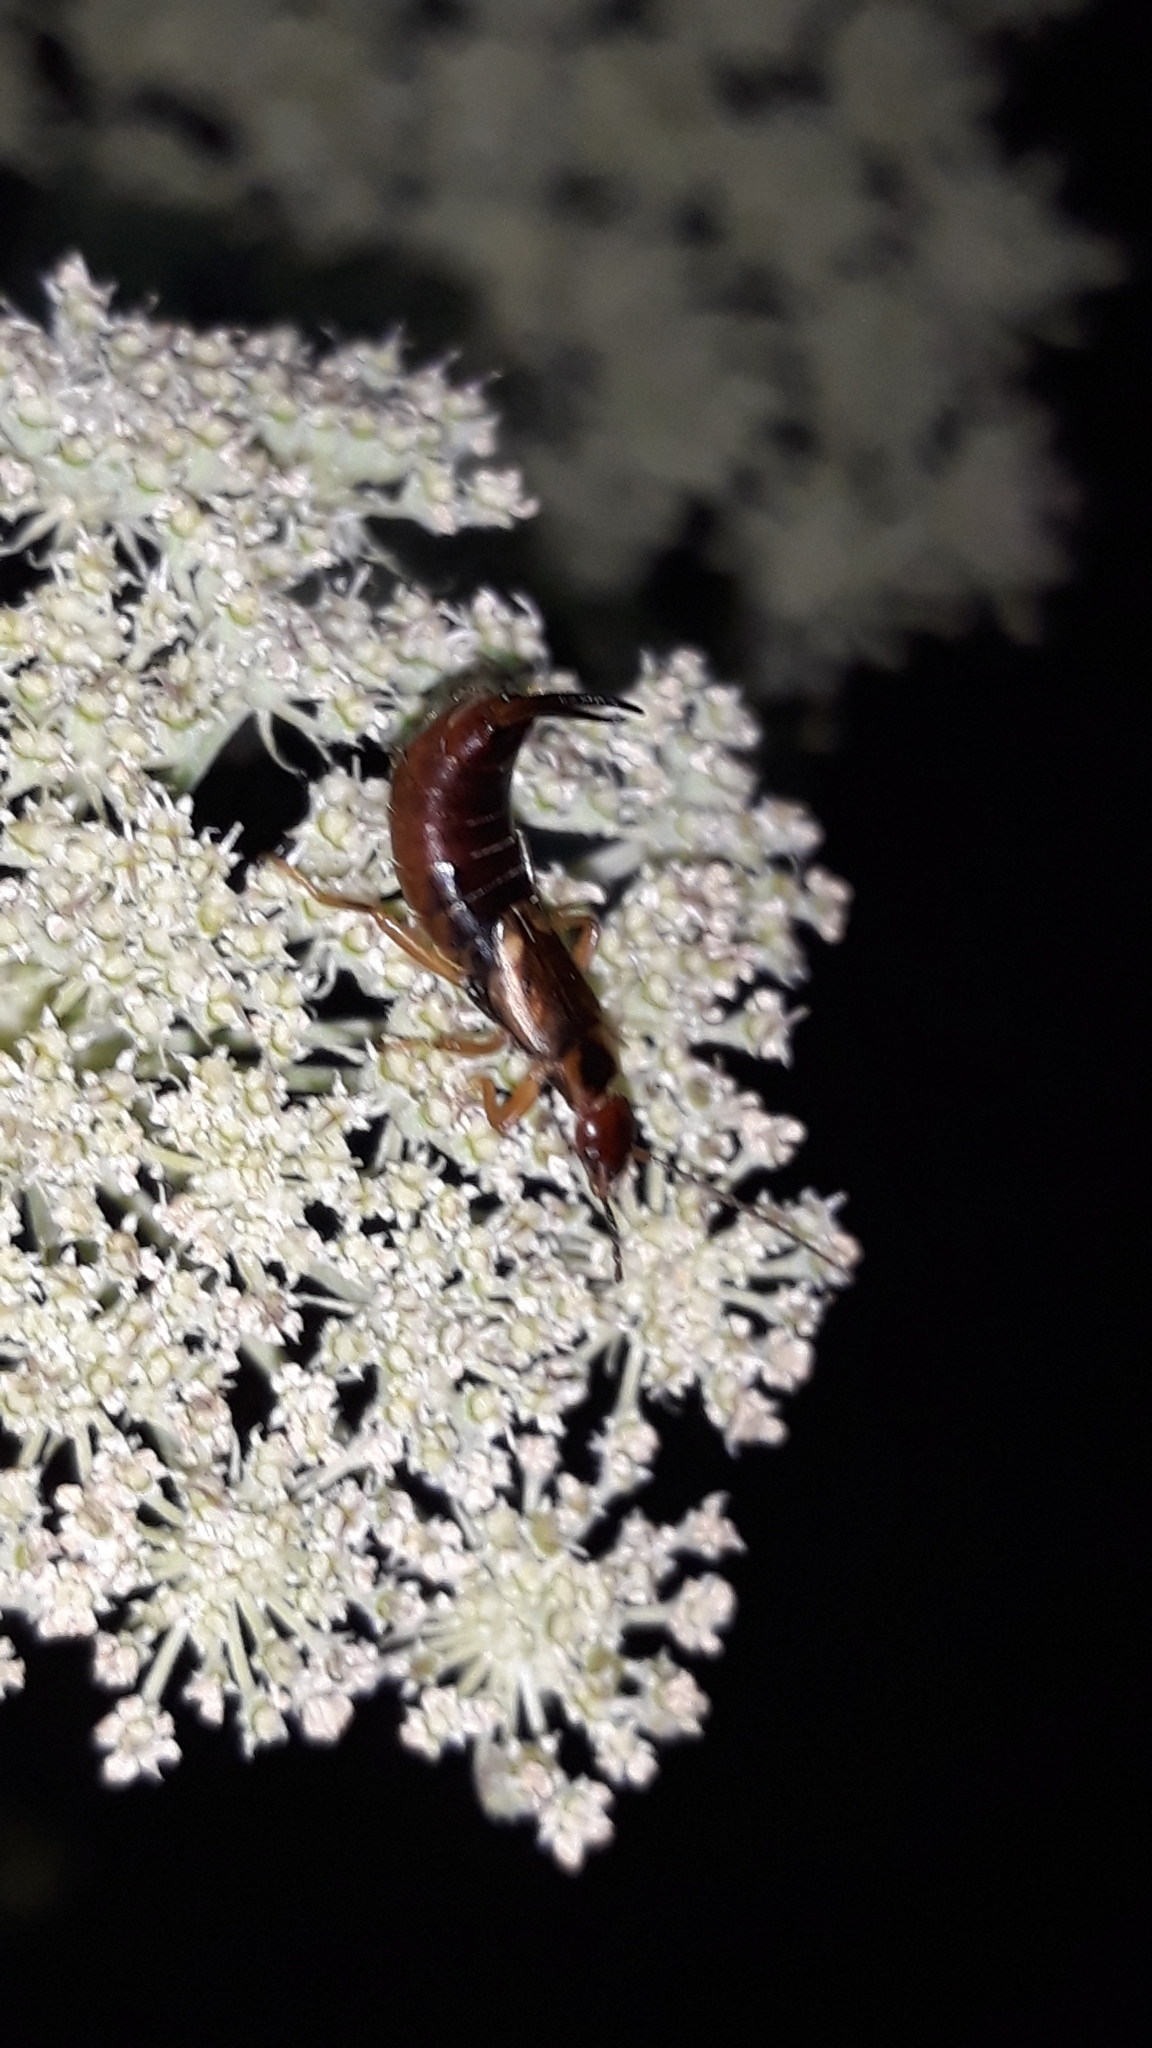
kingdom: Animalia
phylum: Arthropoda
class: Insecta
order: Dermaptera
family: Forficulidae
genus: Forficula
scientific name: Forficula
